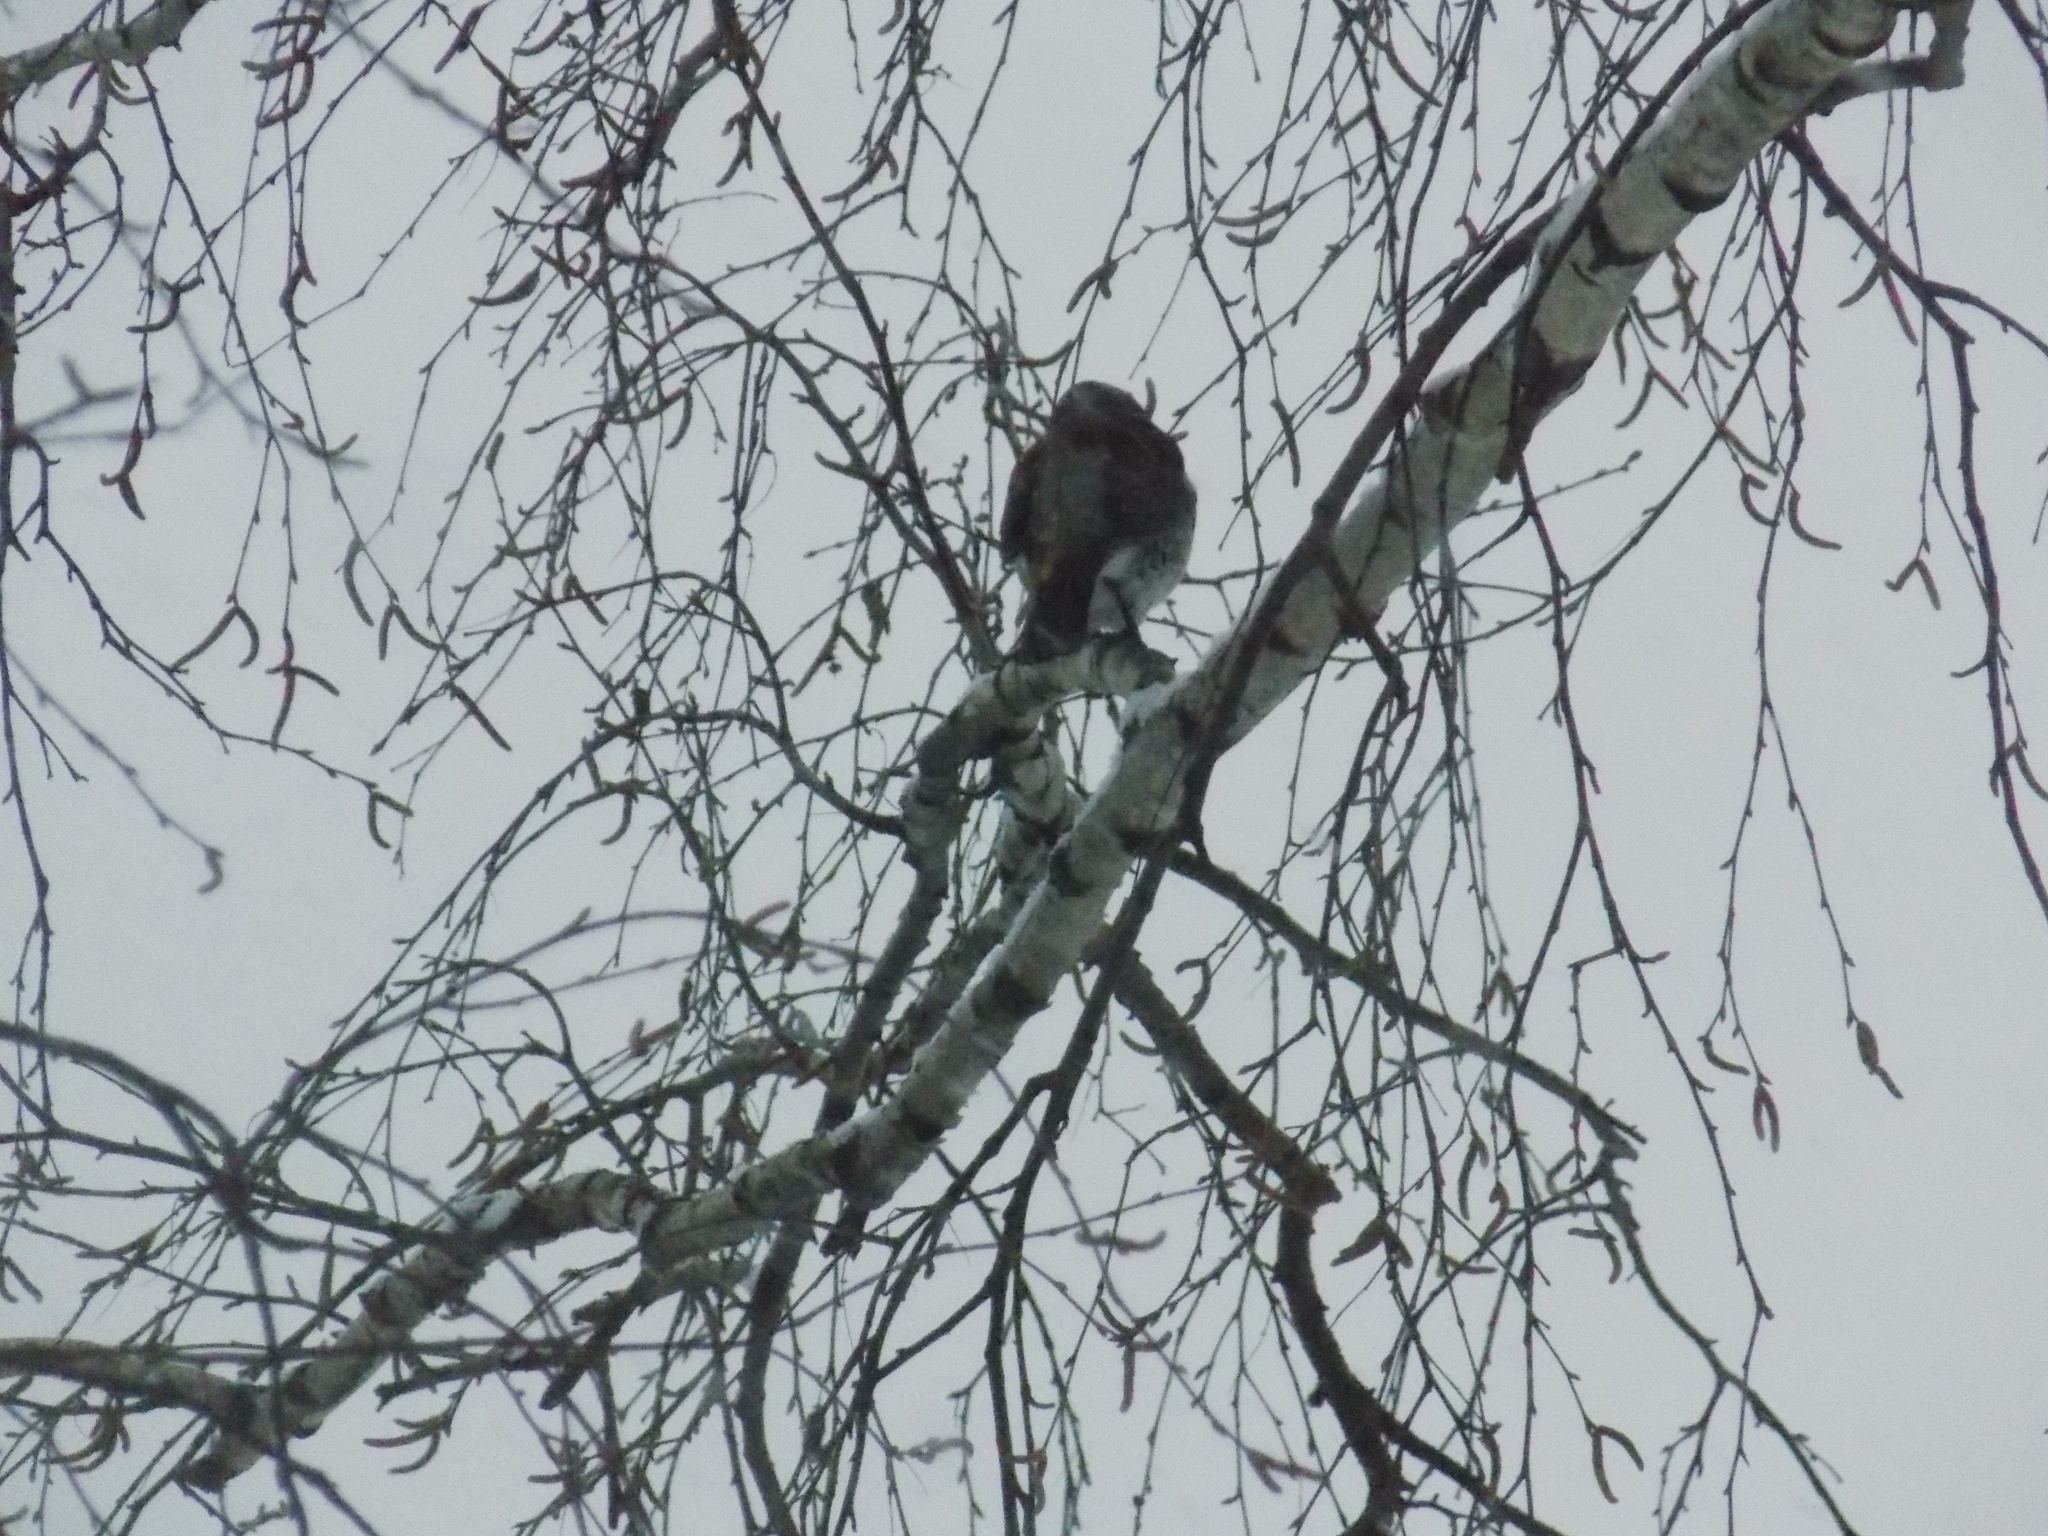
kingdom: Animalia
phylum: Chordata
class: Aves
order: Passeriformes
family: Turdidae
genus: Turdus
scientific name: Turdus pilaris
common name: Fieldfare
